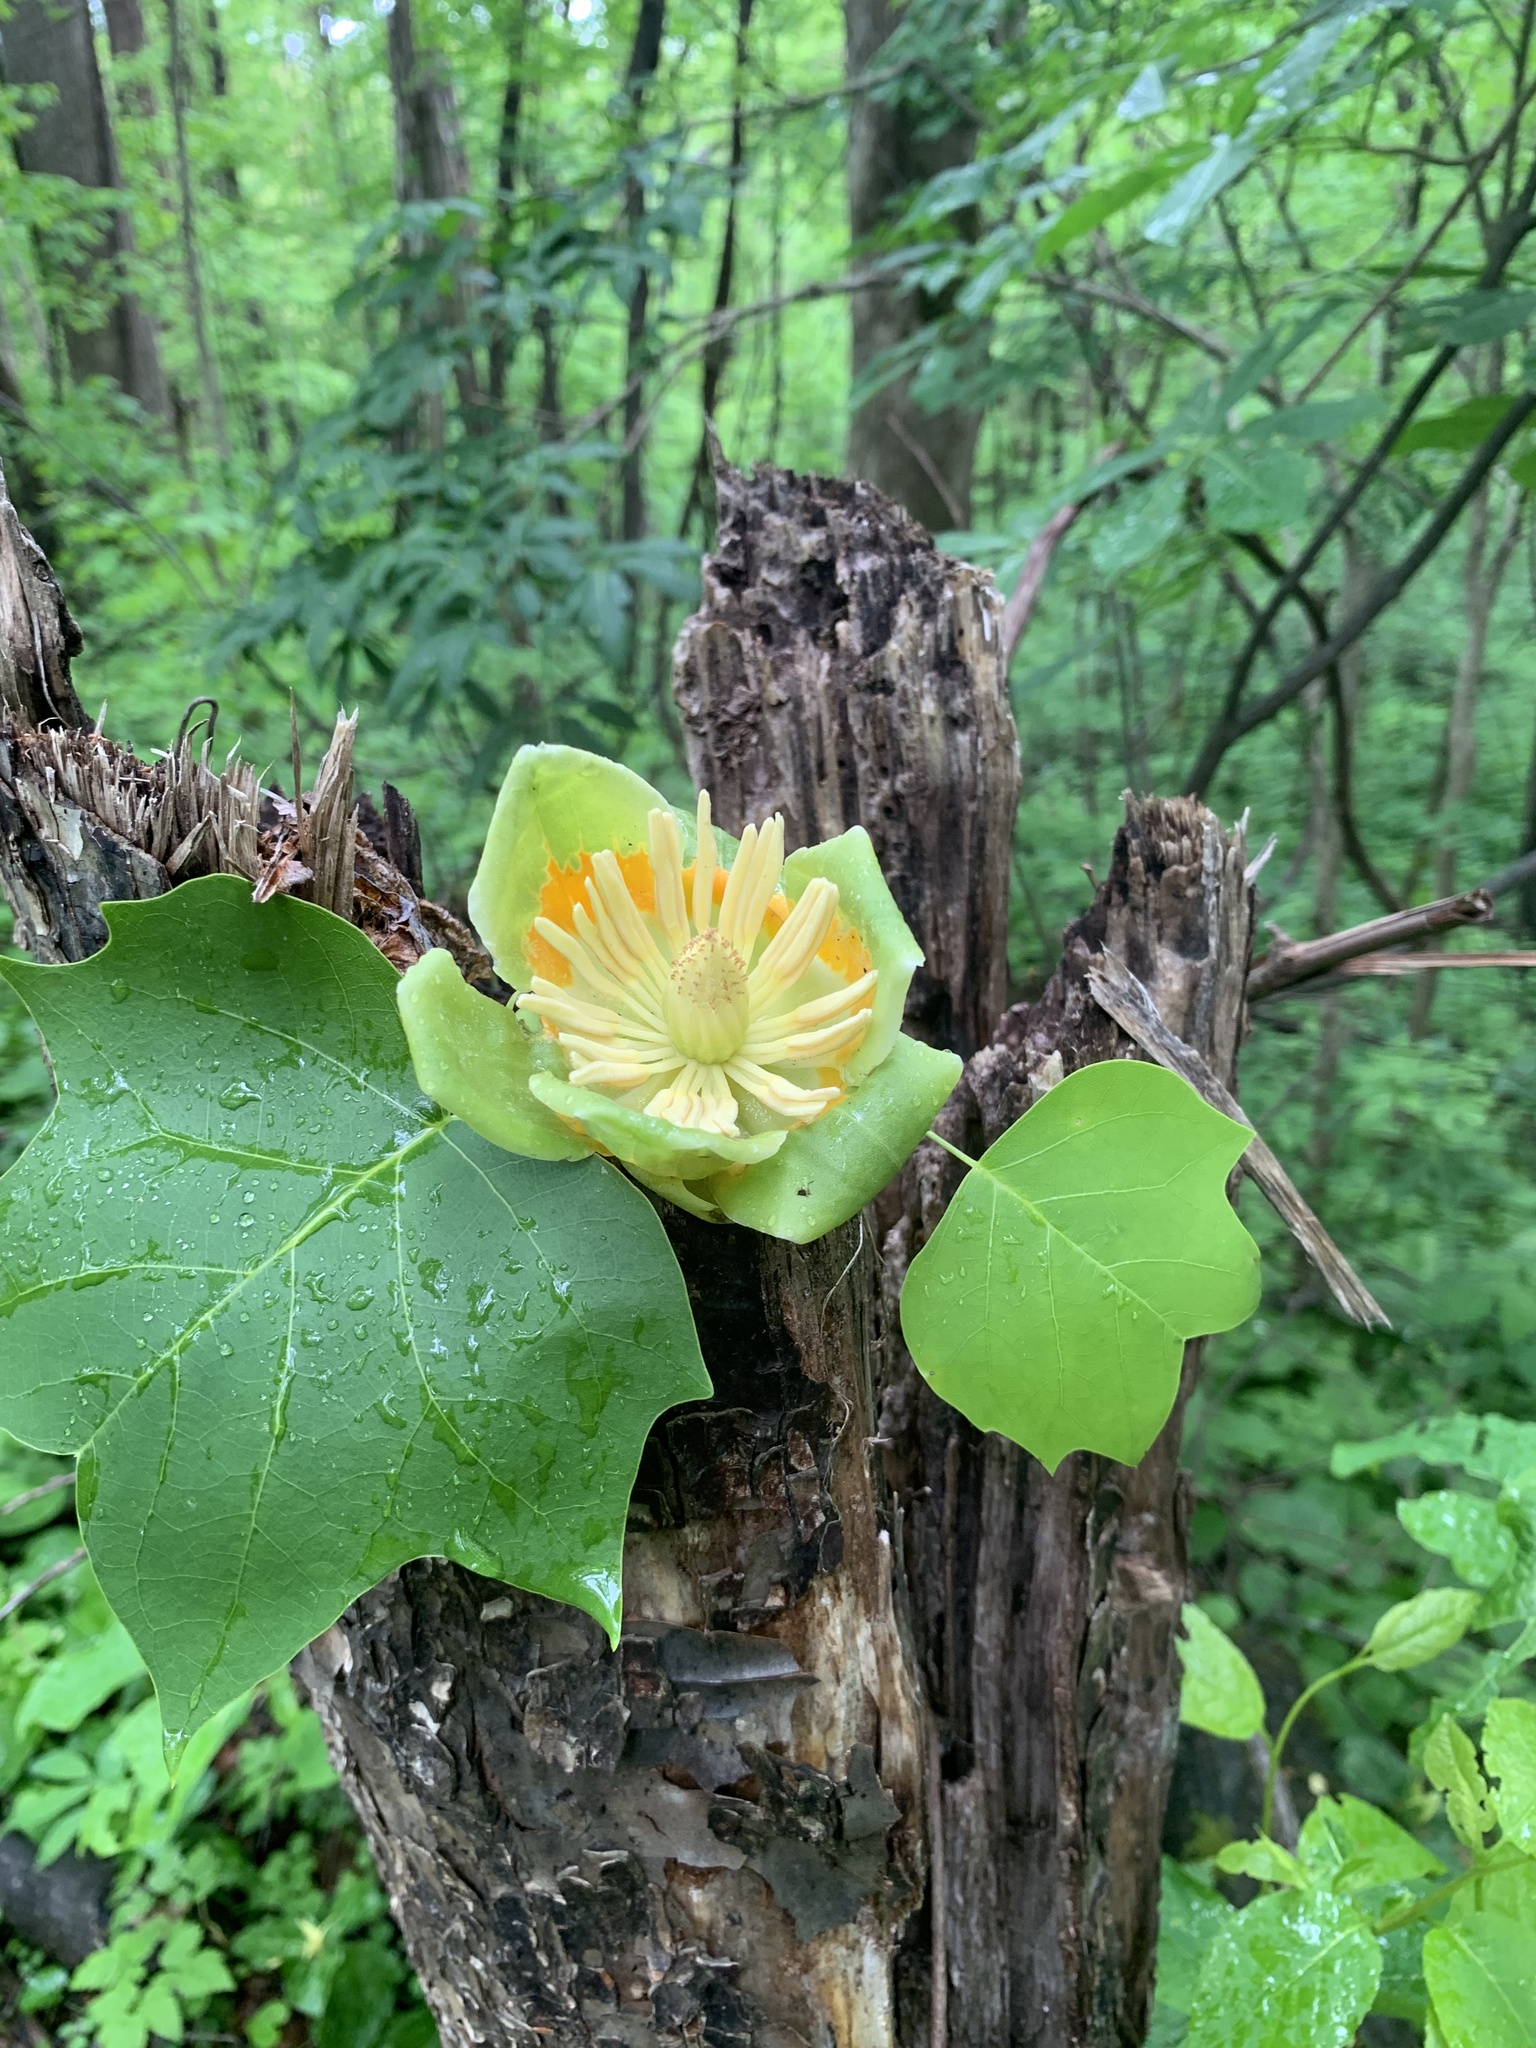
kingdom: Plantae
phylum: Tracheophyta
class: Magnoliopsida
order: Magnoliales
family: Magnoliaceae
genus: Liriodendron
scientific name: Liriodendron tulipifera
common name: Tulip tree
